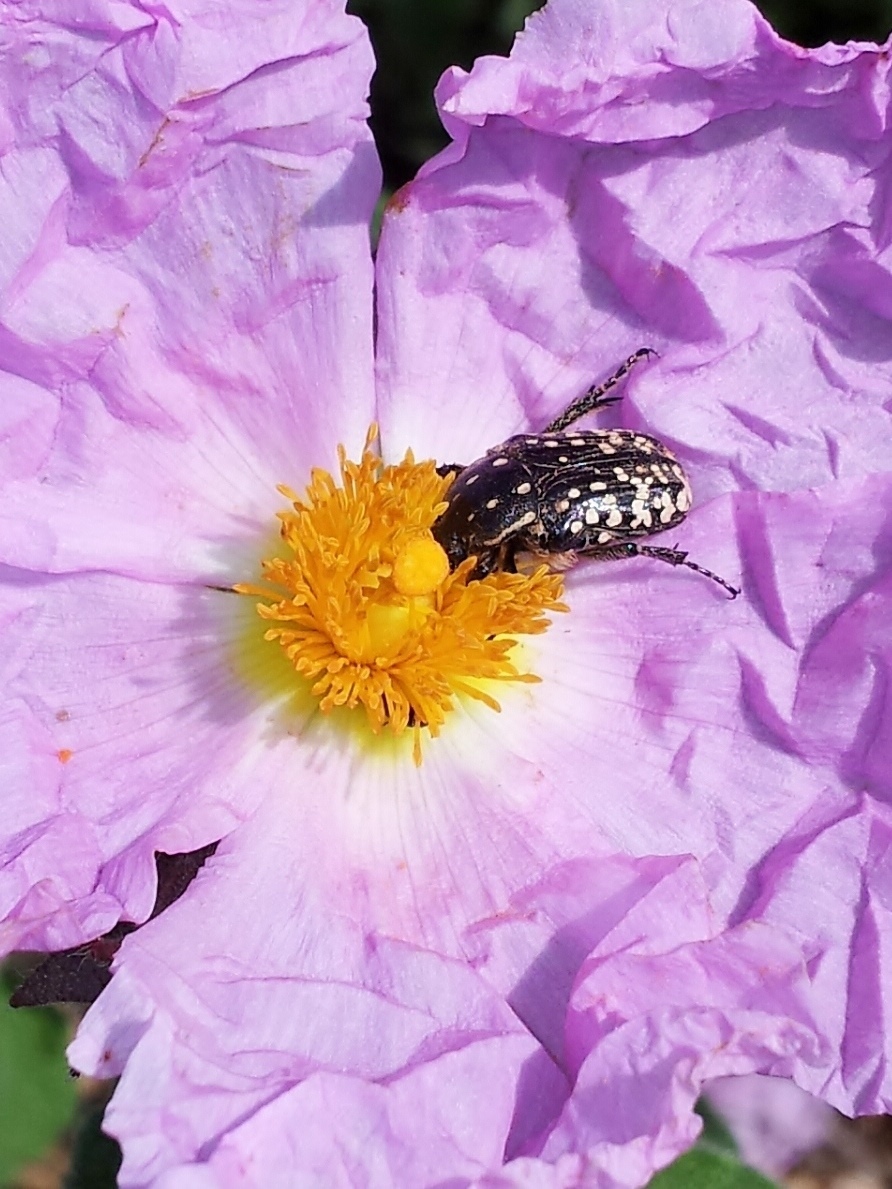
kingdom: Animalia
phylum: Arthropoda
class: Insecta
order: Coleoptera
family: Scarabaeidae
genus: Oxythyrea
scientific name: Oxythyrea noemi
